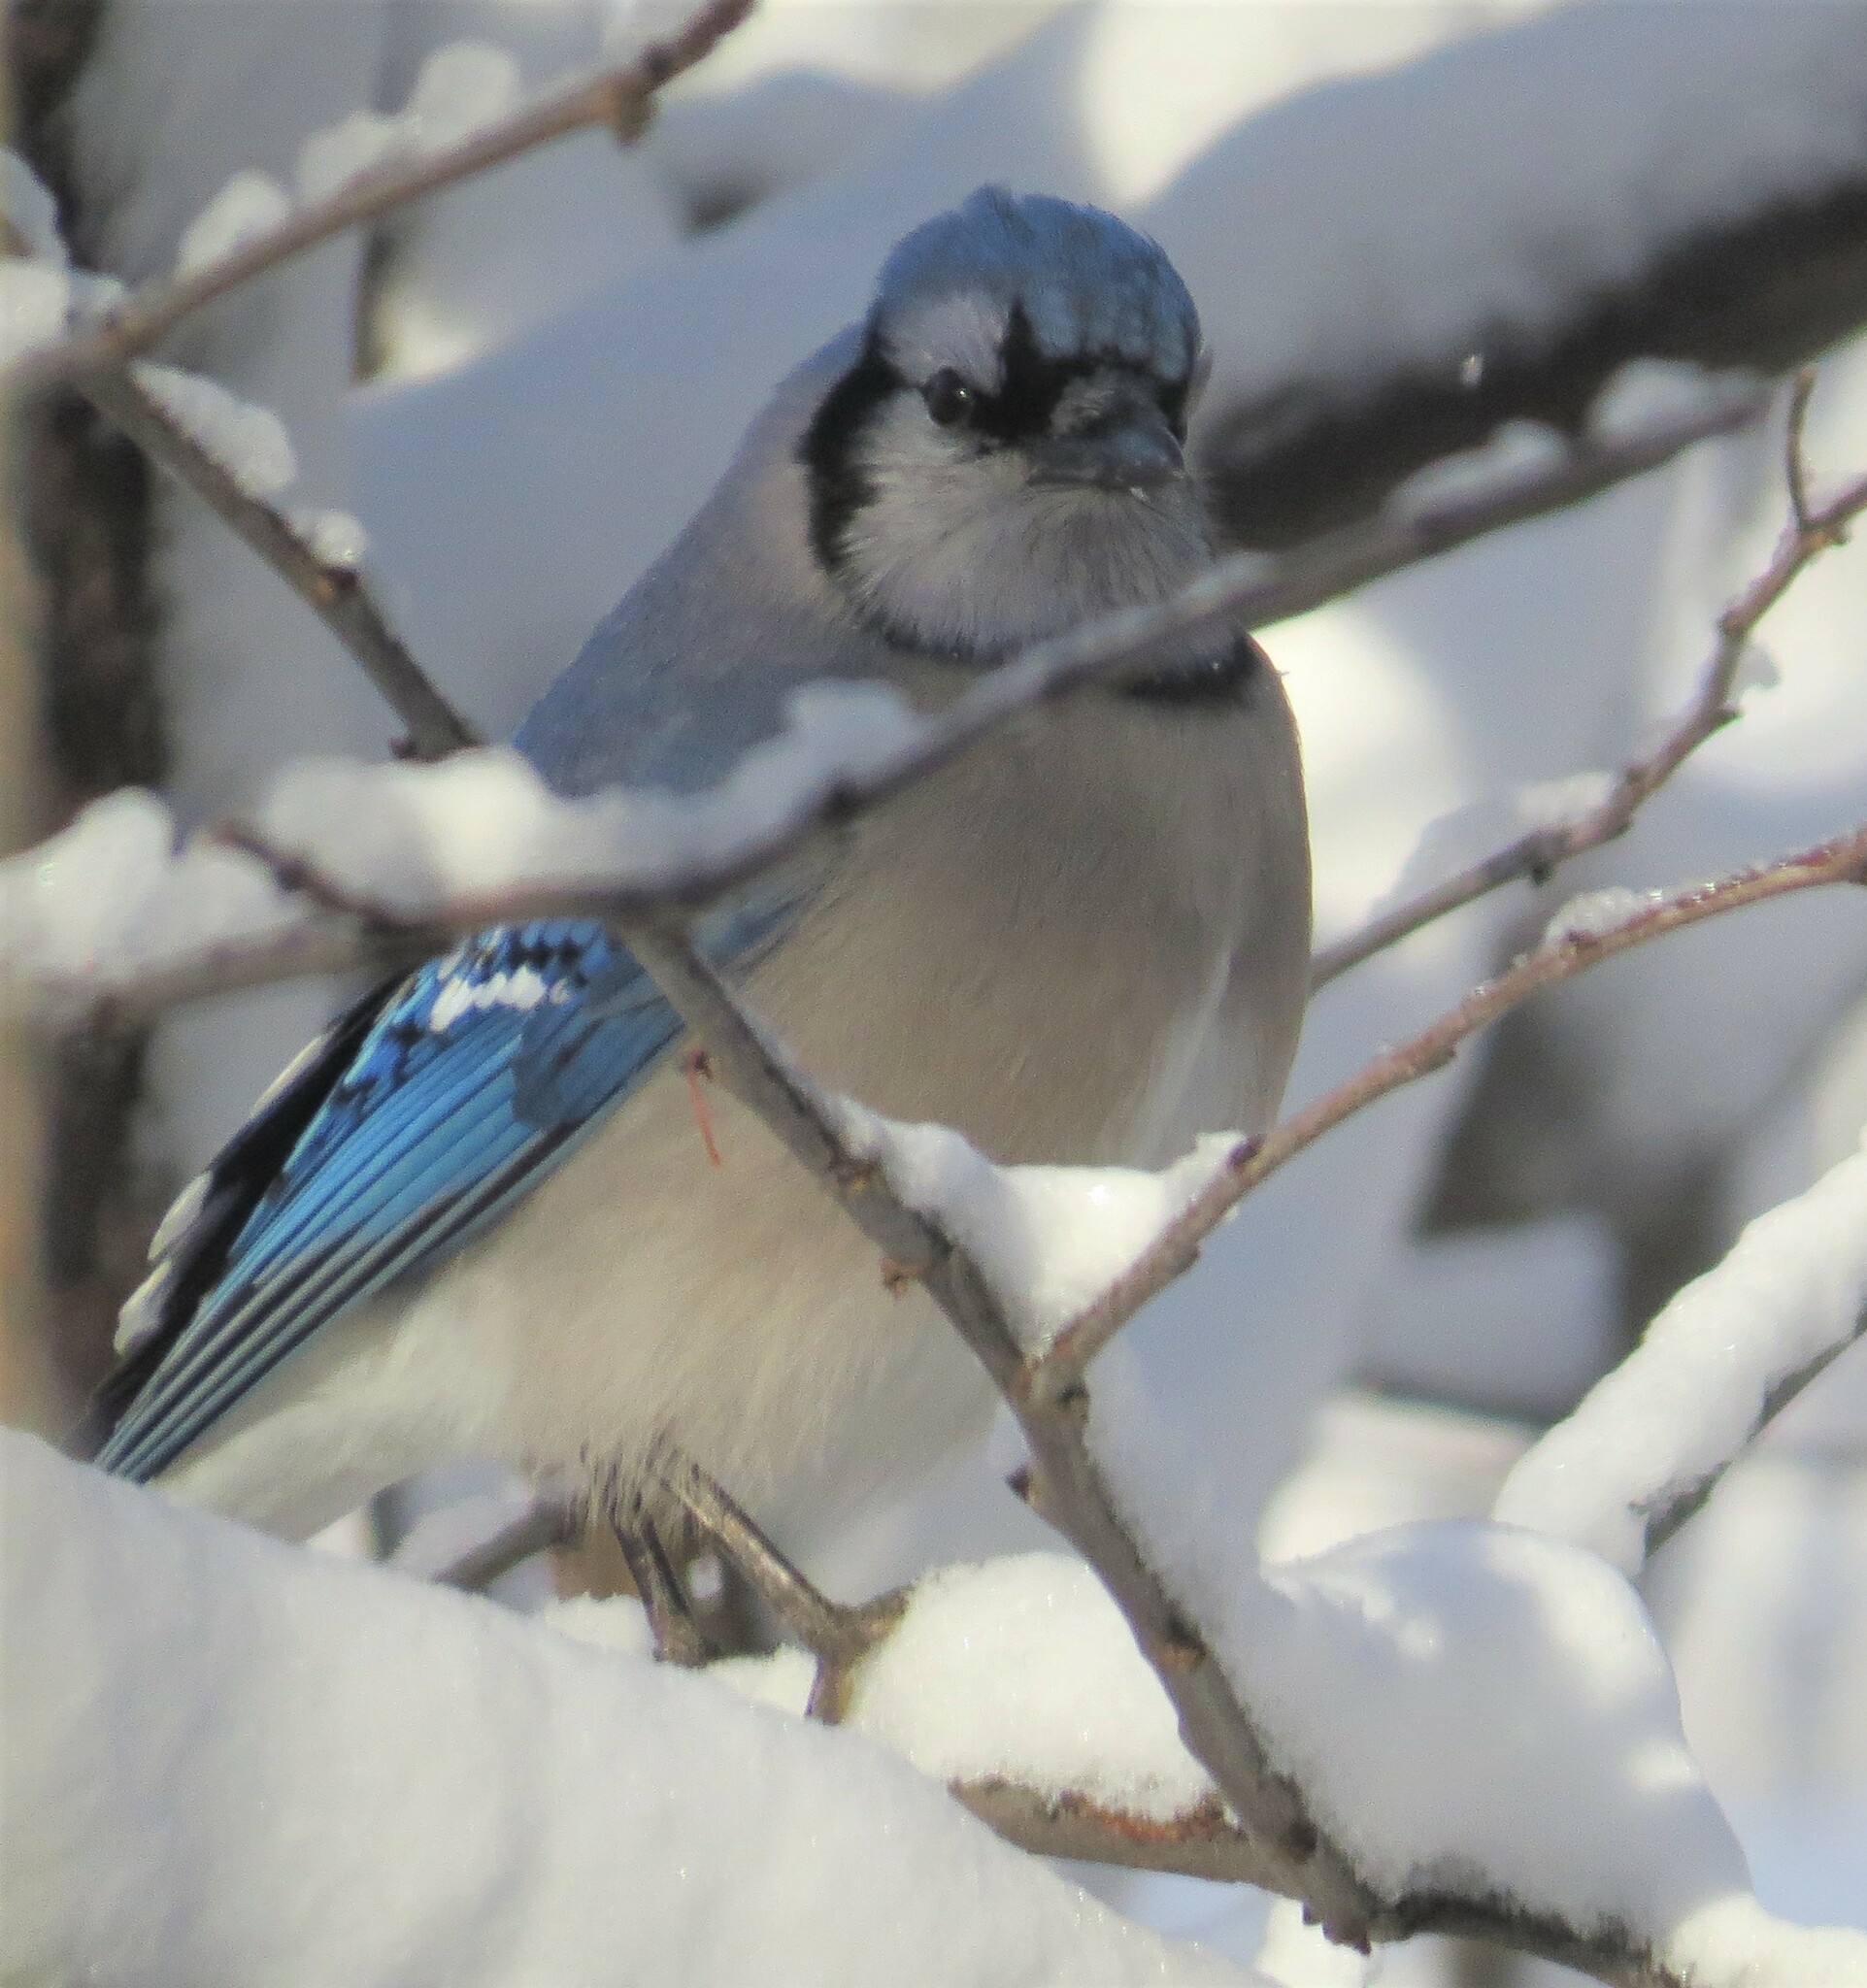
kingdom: Animalia
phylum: Chordata
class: Aves
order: Passeriformes
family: Corvidae
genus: Cyanocitta
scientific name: Cyanocitta cristata
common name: Blue jay
